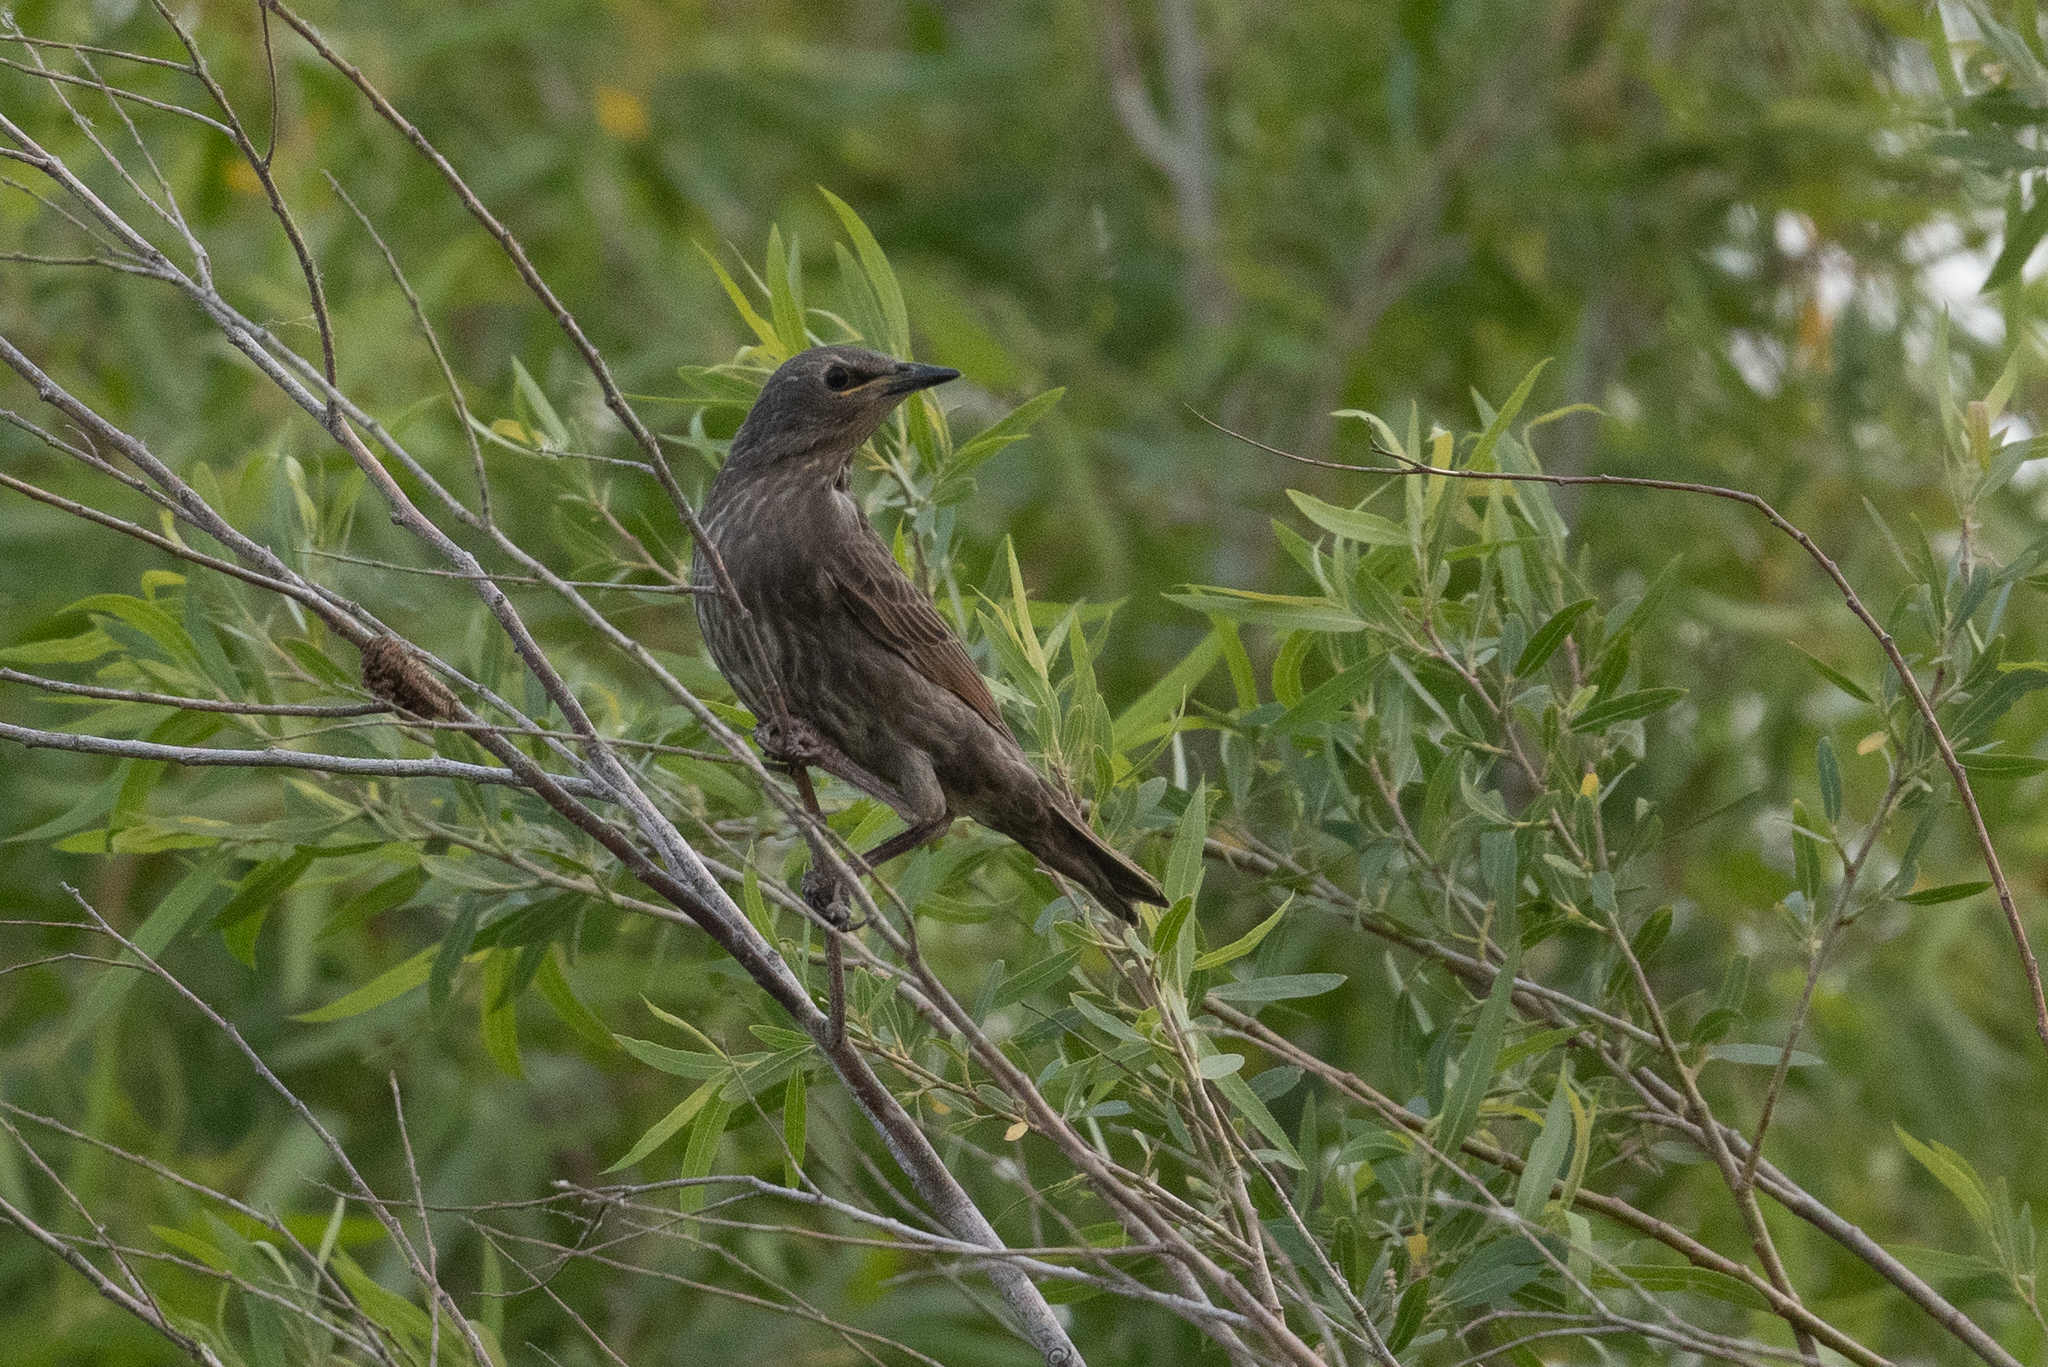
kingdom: Animalia
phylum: Chordata
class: Aves
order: Passeriformes
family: Sturnidae
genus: Sturnus
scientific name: Sturnus vulgaris
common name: Common starling
